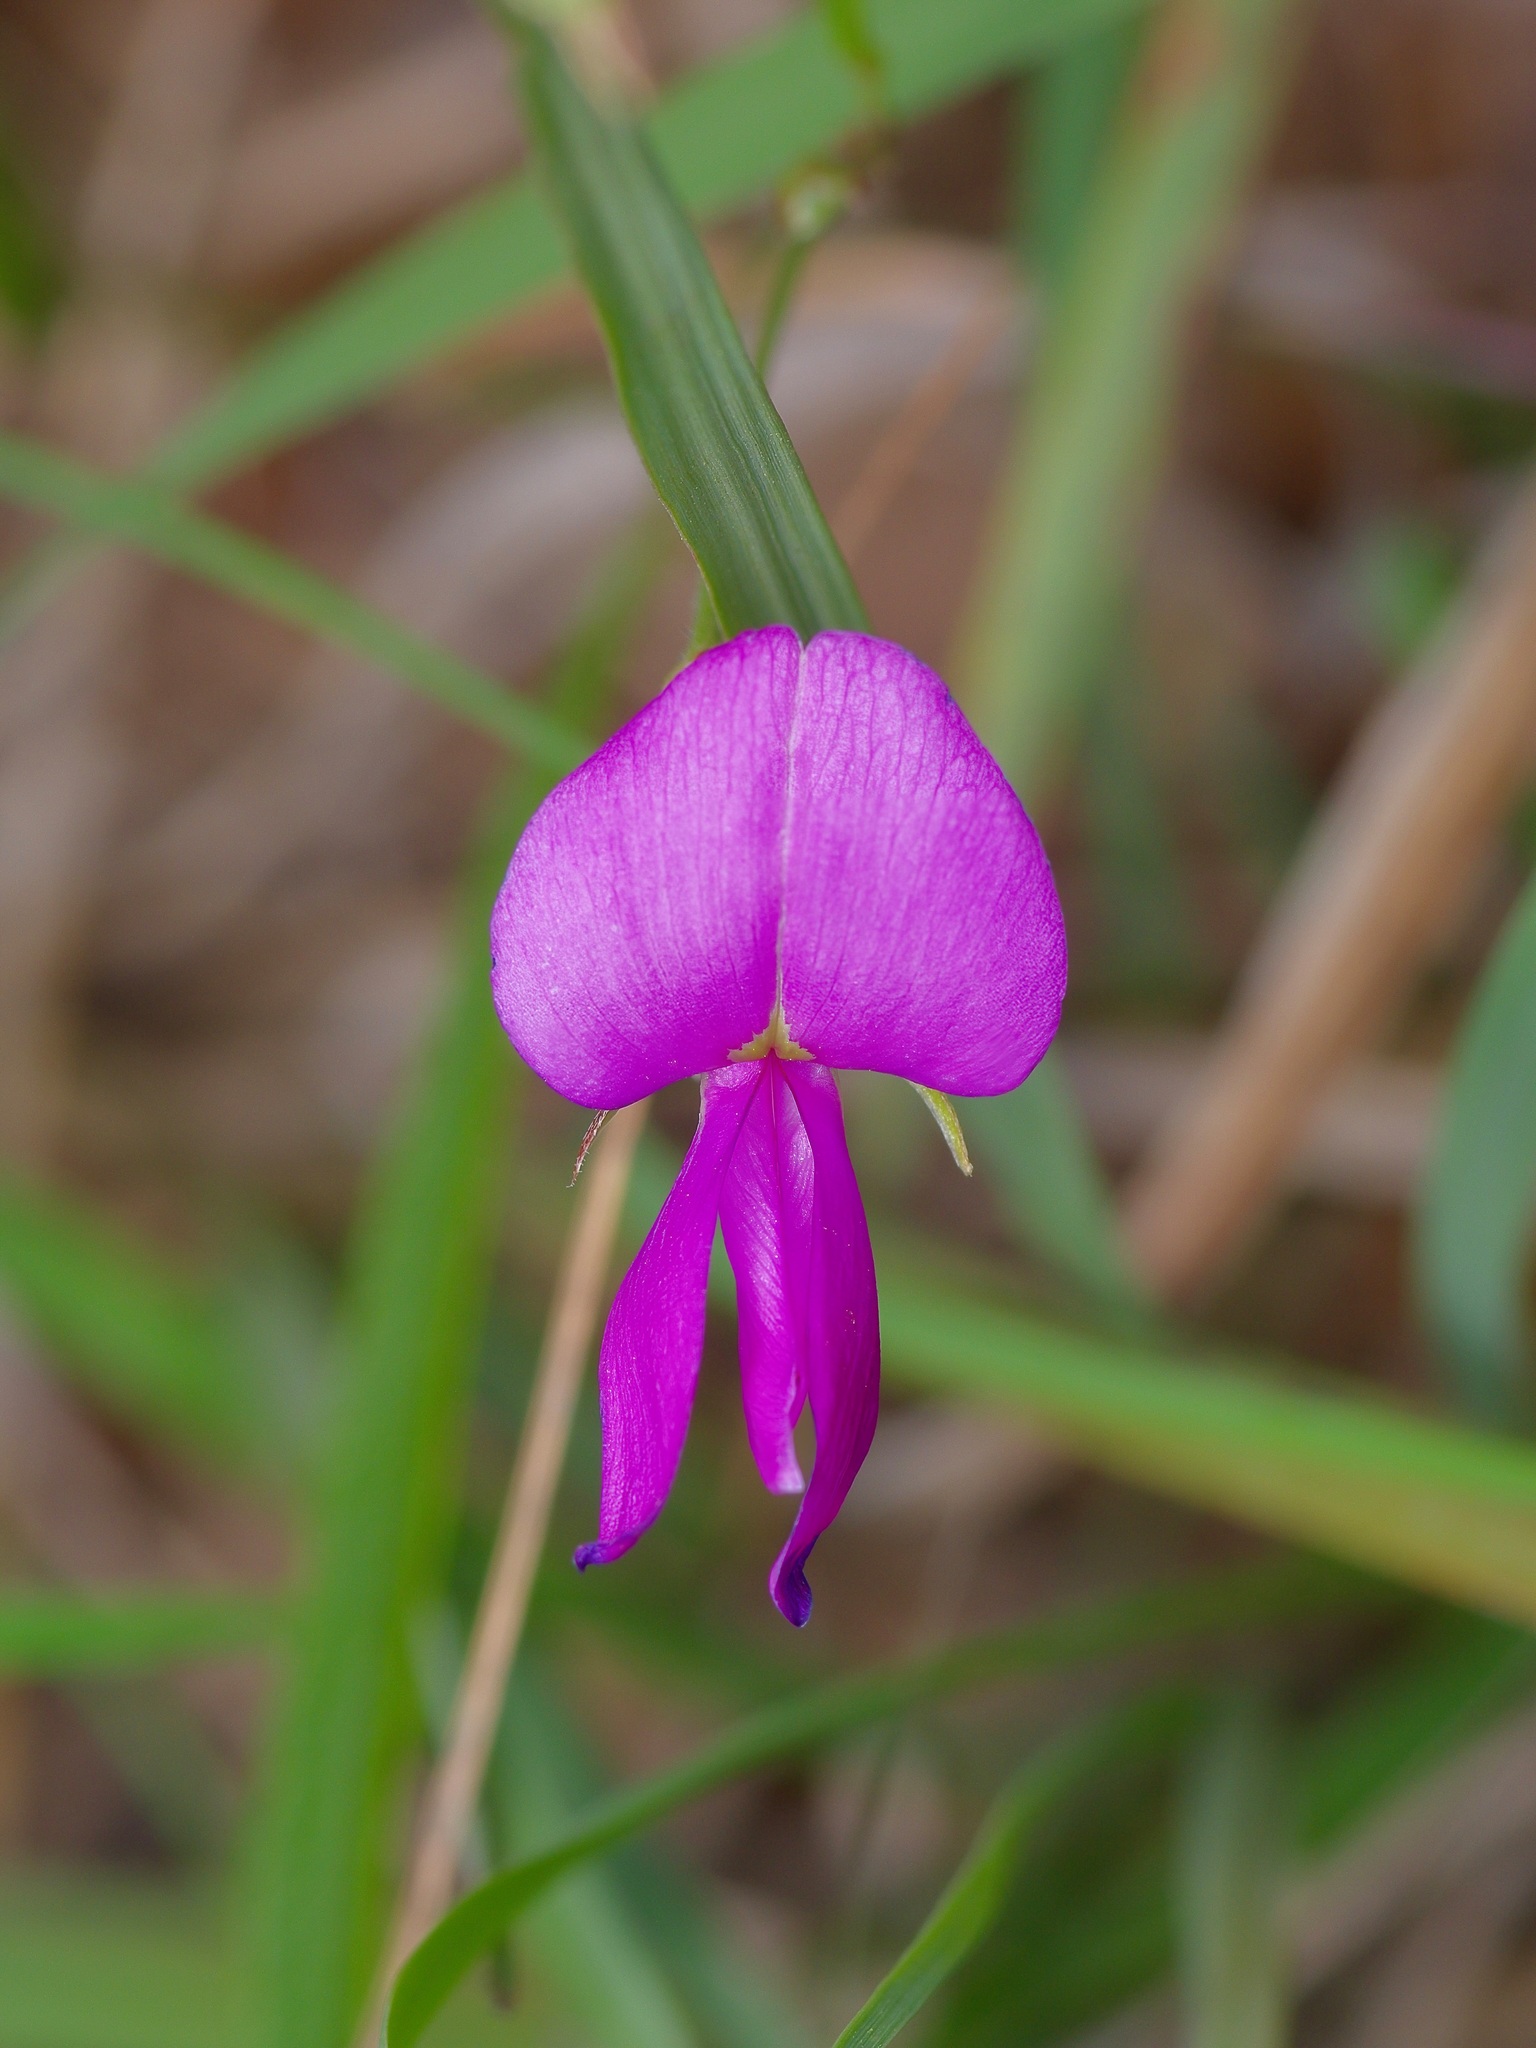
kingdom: Plantae
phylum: Tracheophyta
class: Magnoliopsida
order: Fabales
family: Fabaceae
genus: Nanogalactia
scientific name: Nanogalactia heterophylla
